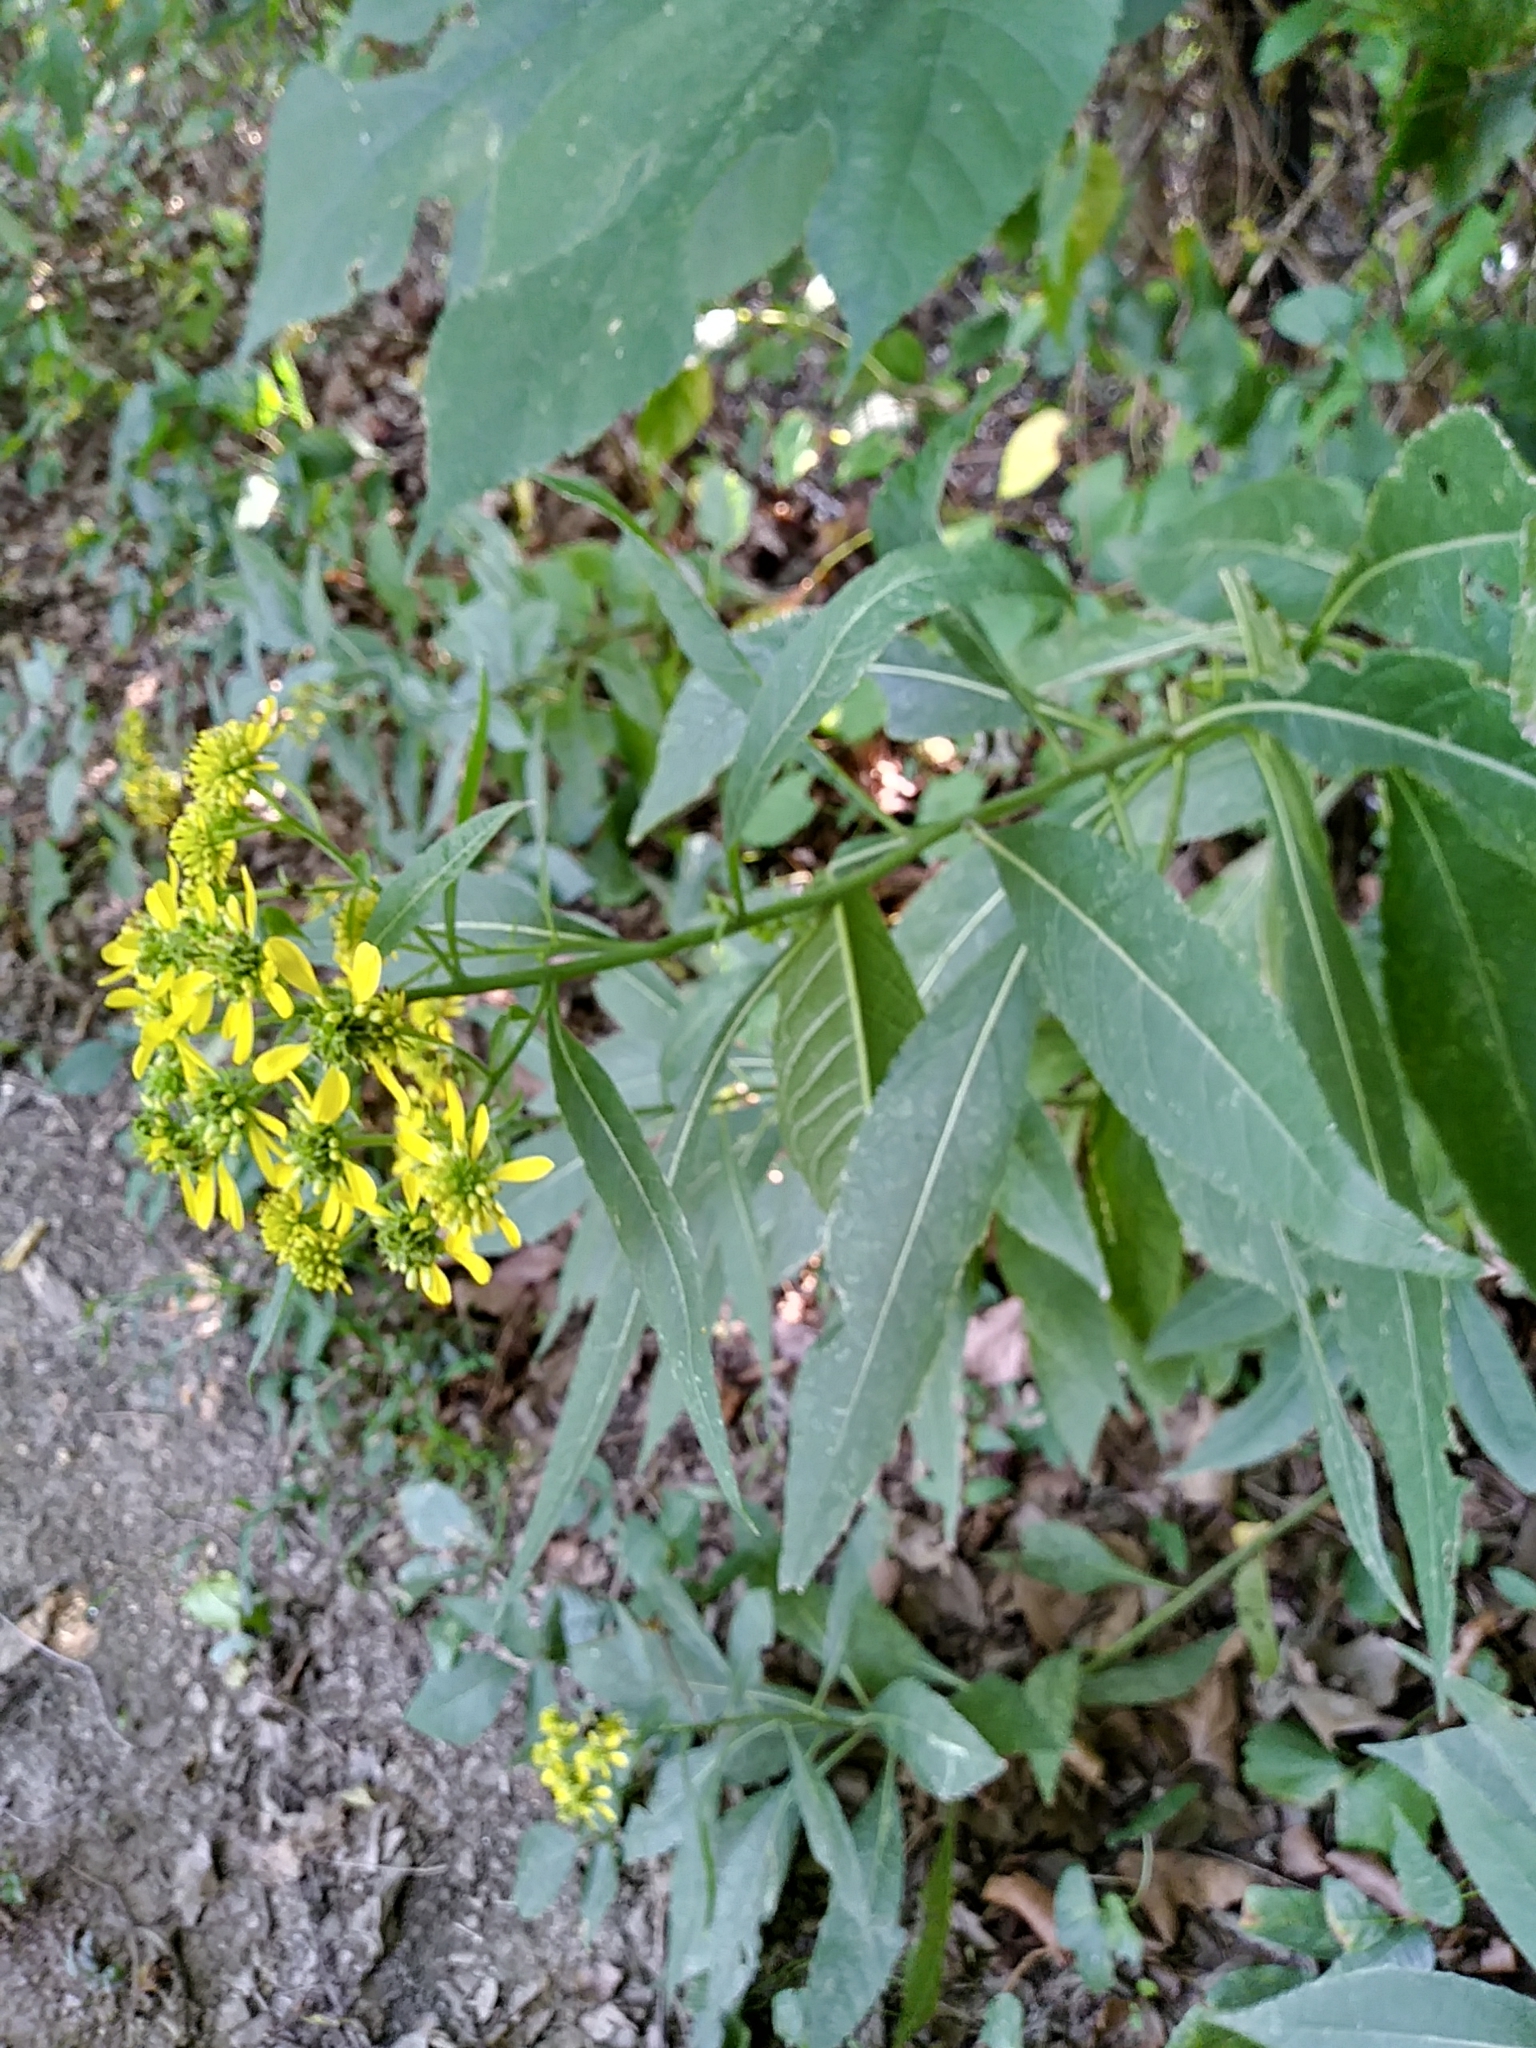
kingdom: Plantae
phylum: Tracheophyta
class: Magnoliopsida
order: Asterales
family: Asteraceae
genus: Verbesina
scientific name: Verbesina alternifolia
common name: Wingstem
